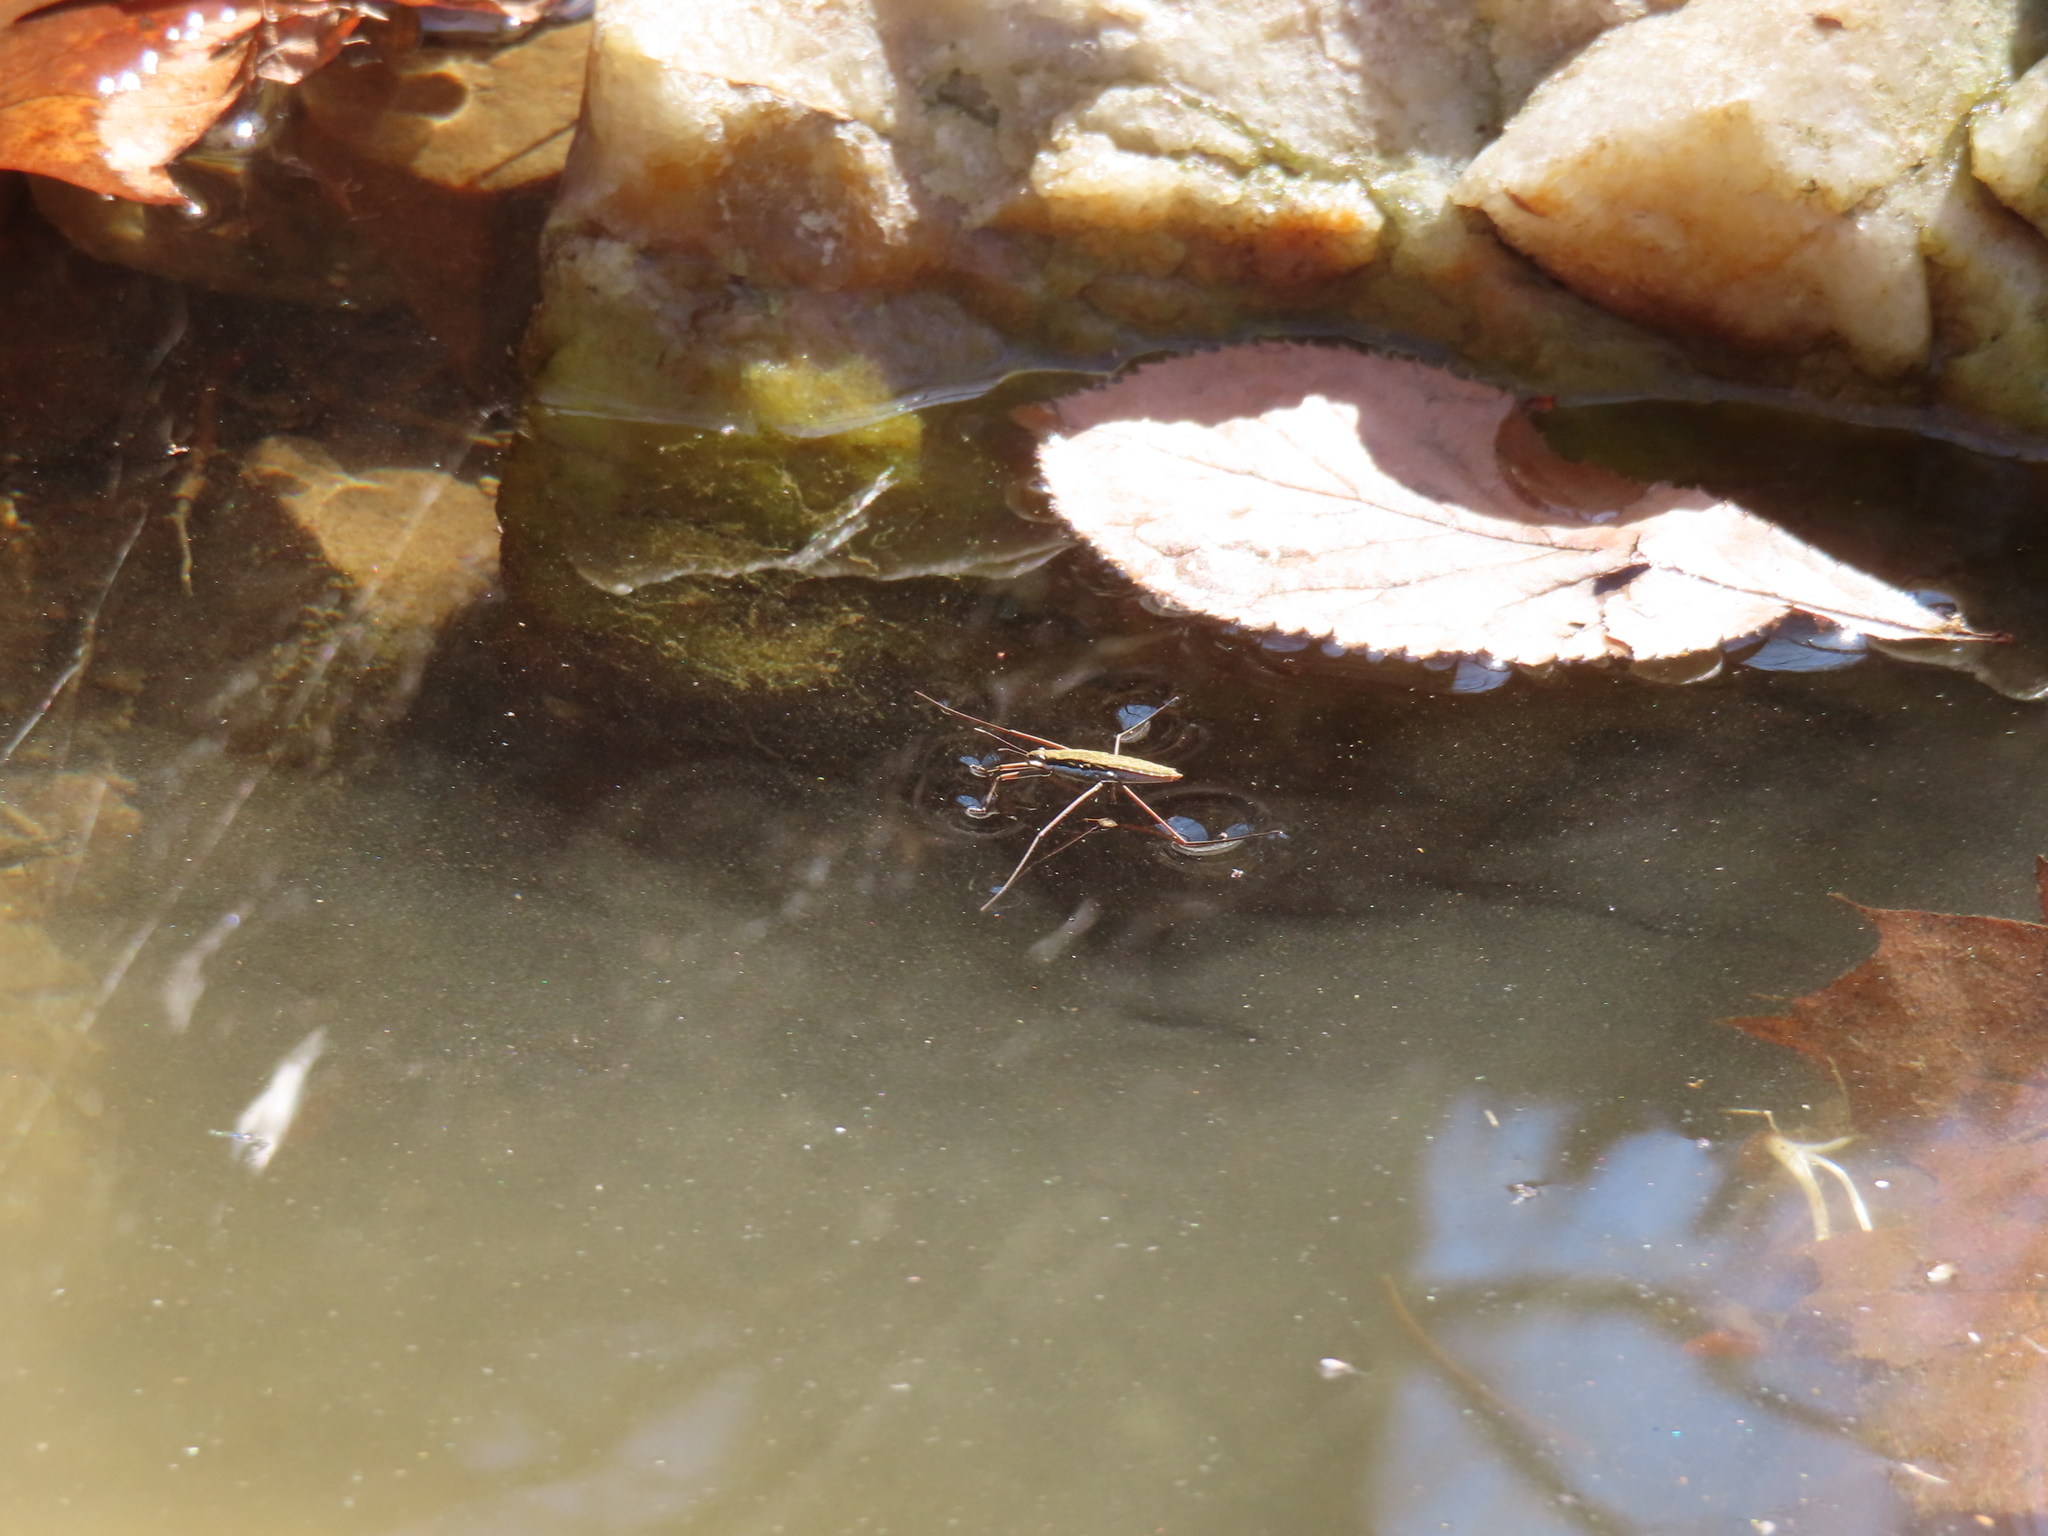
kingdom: Animalia
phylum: Arthropoda
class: Insecta
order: Hemiptera
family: Gerridae
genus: Aquarius
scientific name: Aquarius remigis
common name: Common water strider
